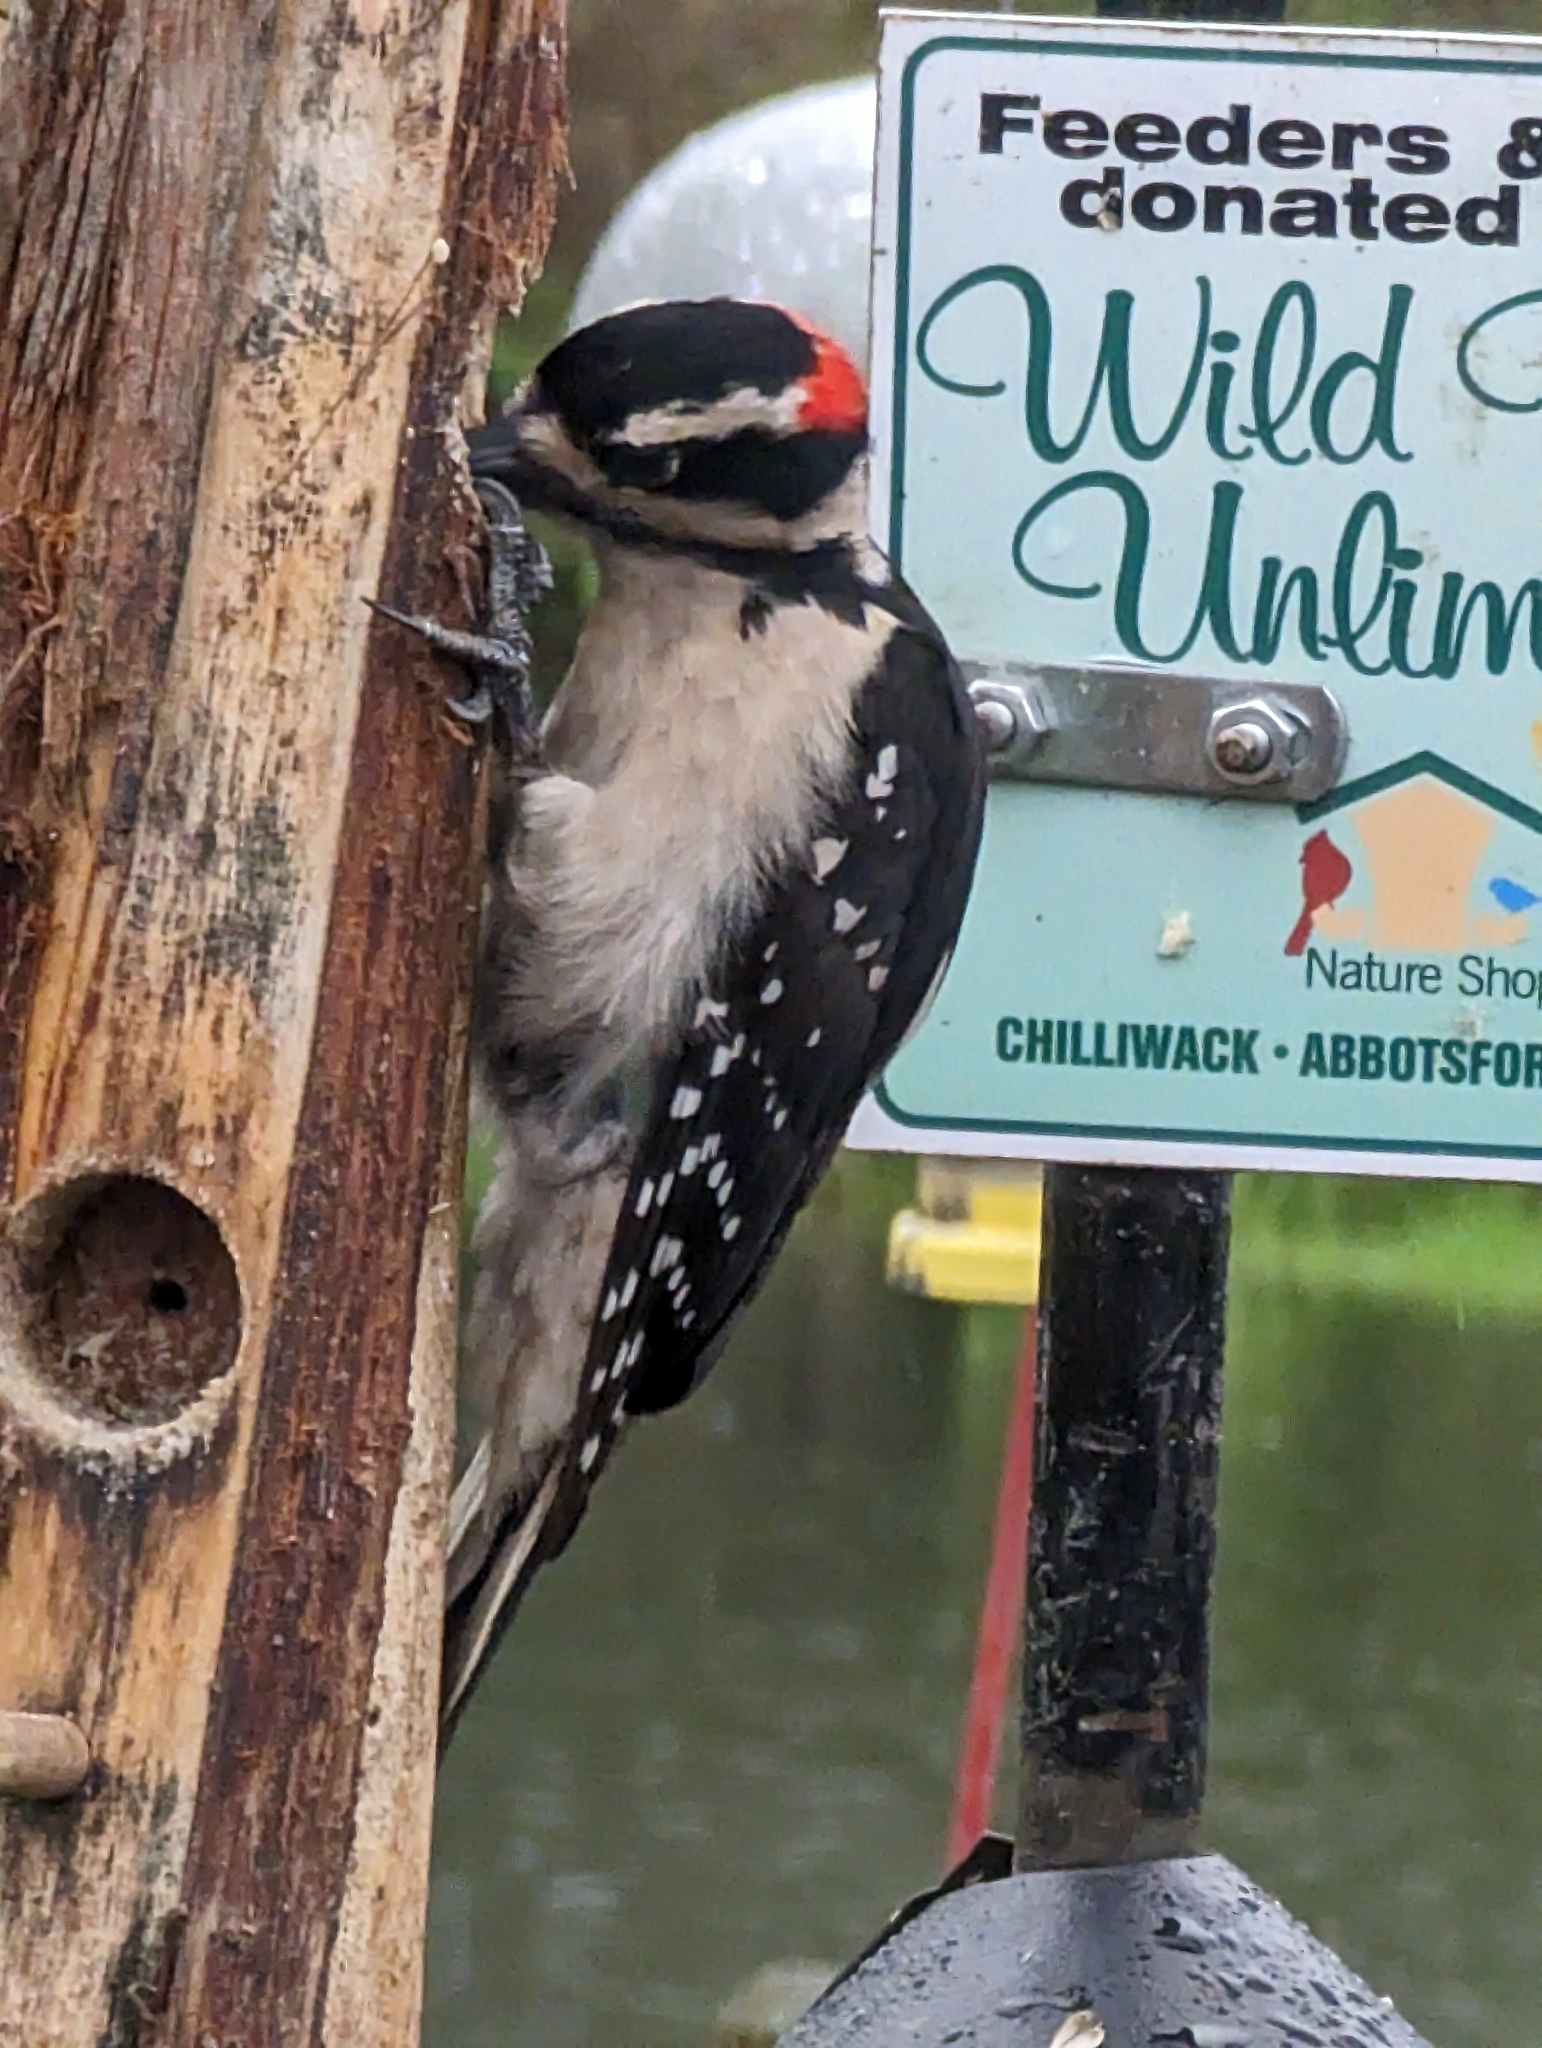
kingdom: Animalia
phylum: Chordata
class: Aves
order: Piciformes
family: Picidae
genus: Leuconotopicus
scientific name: Leuconotopicus villosus
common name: Hairy woodpecker
